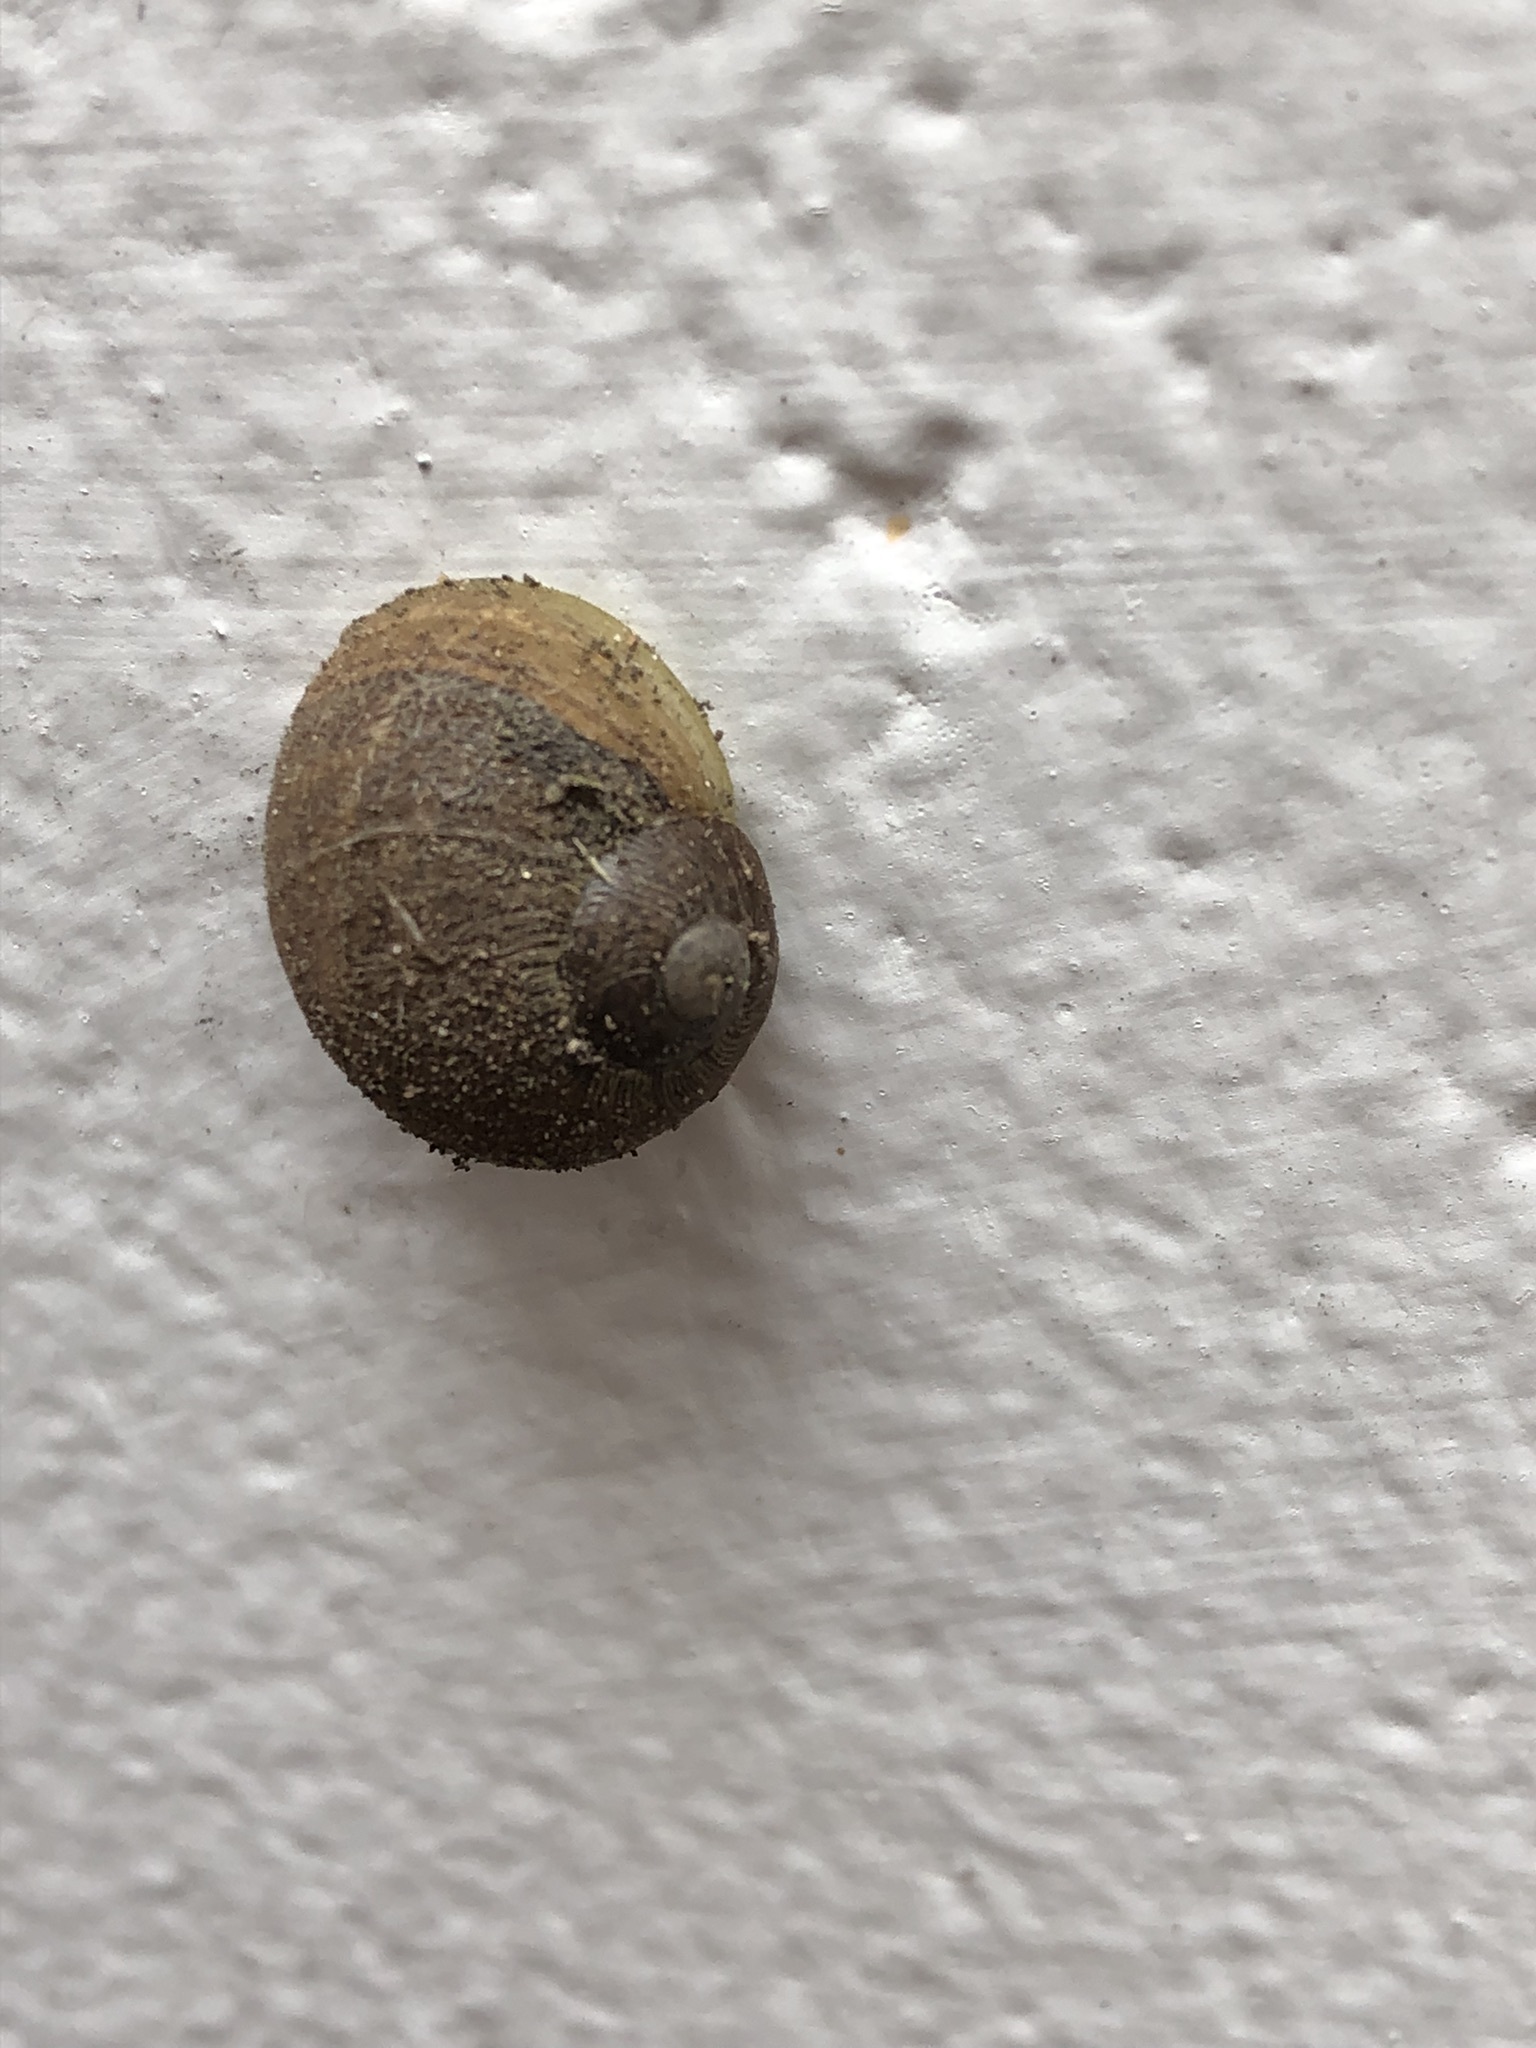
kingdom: Animalia
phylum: Mollusca
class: Gastropoda
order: Stylommatophora
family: Helicidae
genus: Cornu
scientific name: Cornu aspersum
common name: Brown garden snail
